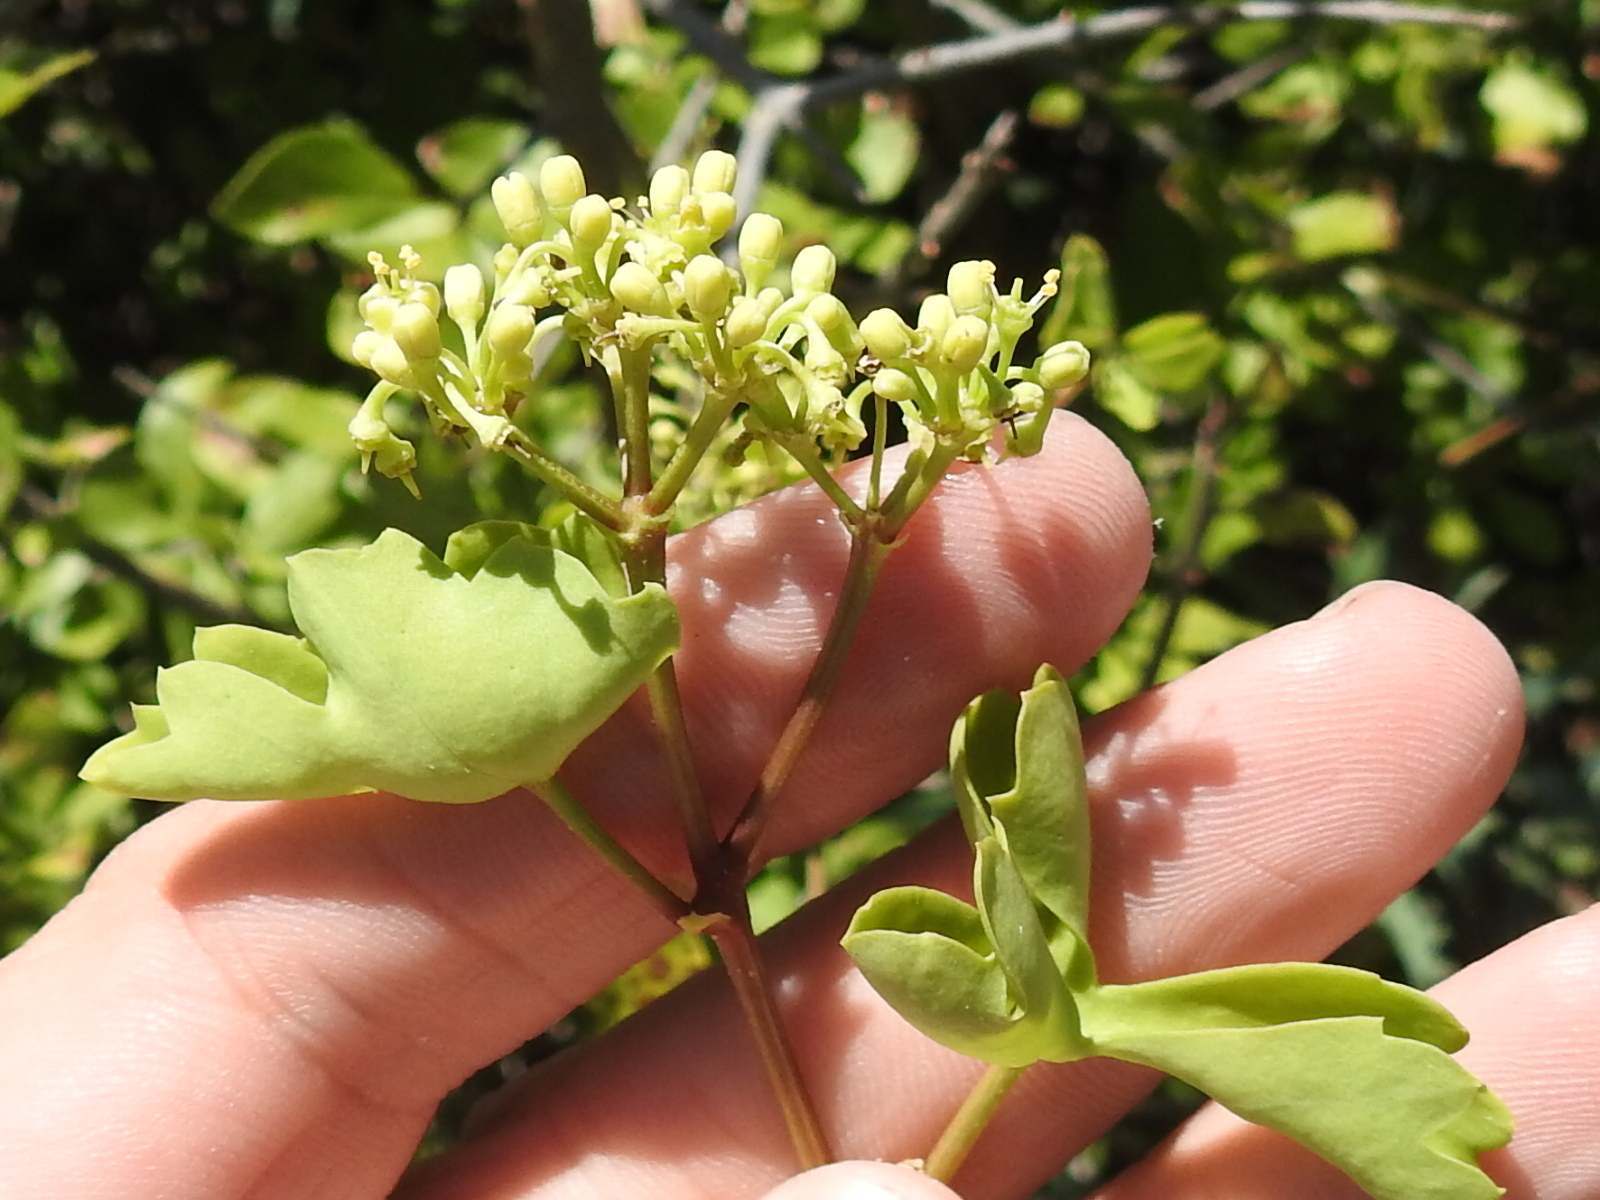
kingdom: Plantae
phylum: Tracheophyta
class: Magnoliopsida
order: Vitales
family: Vitaceae
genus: Cissus
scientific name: Cissus trifoliata
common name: Vine-sorrel
